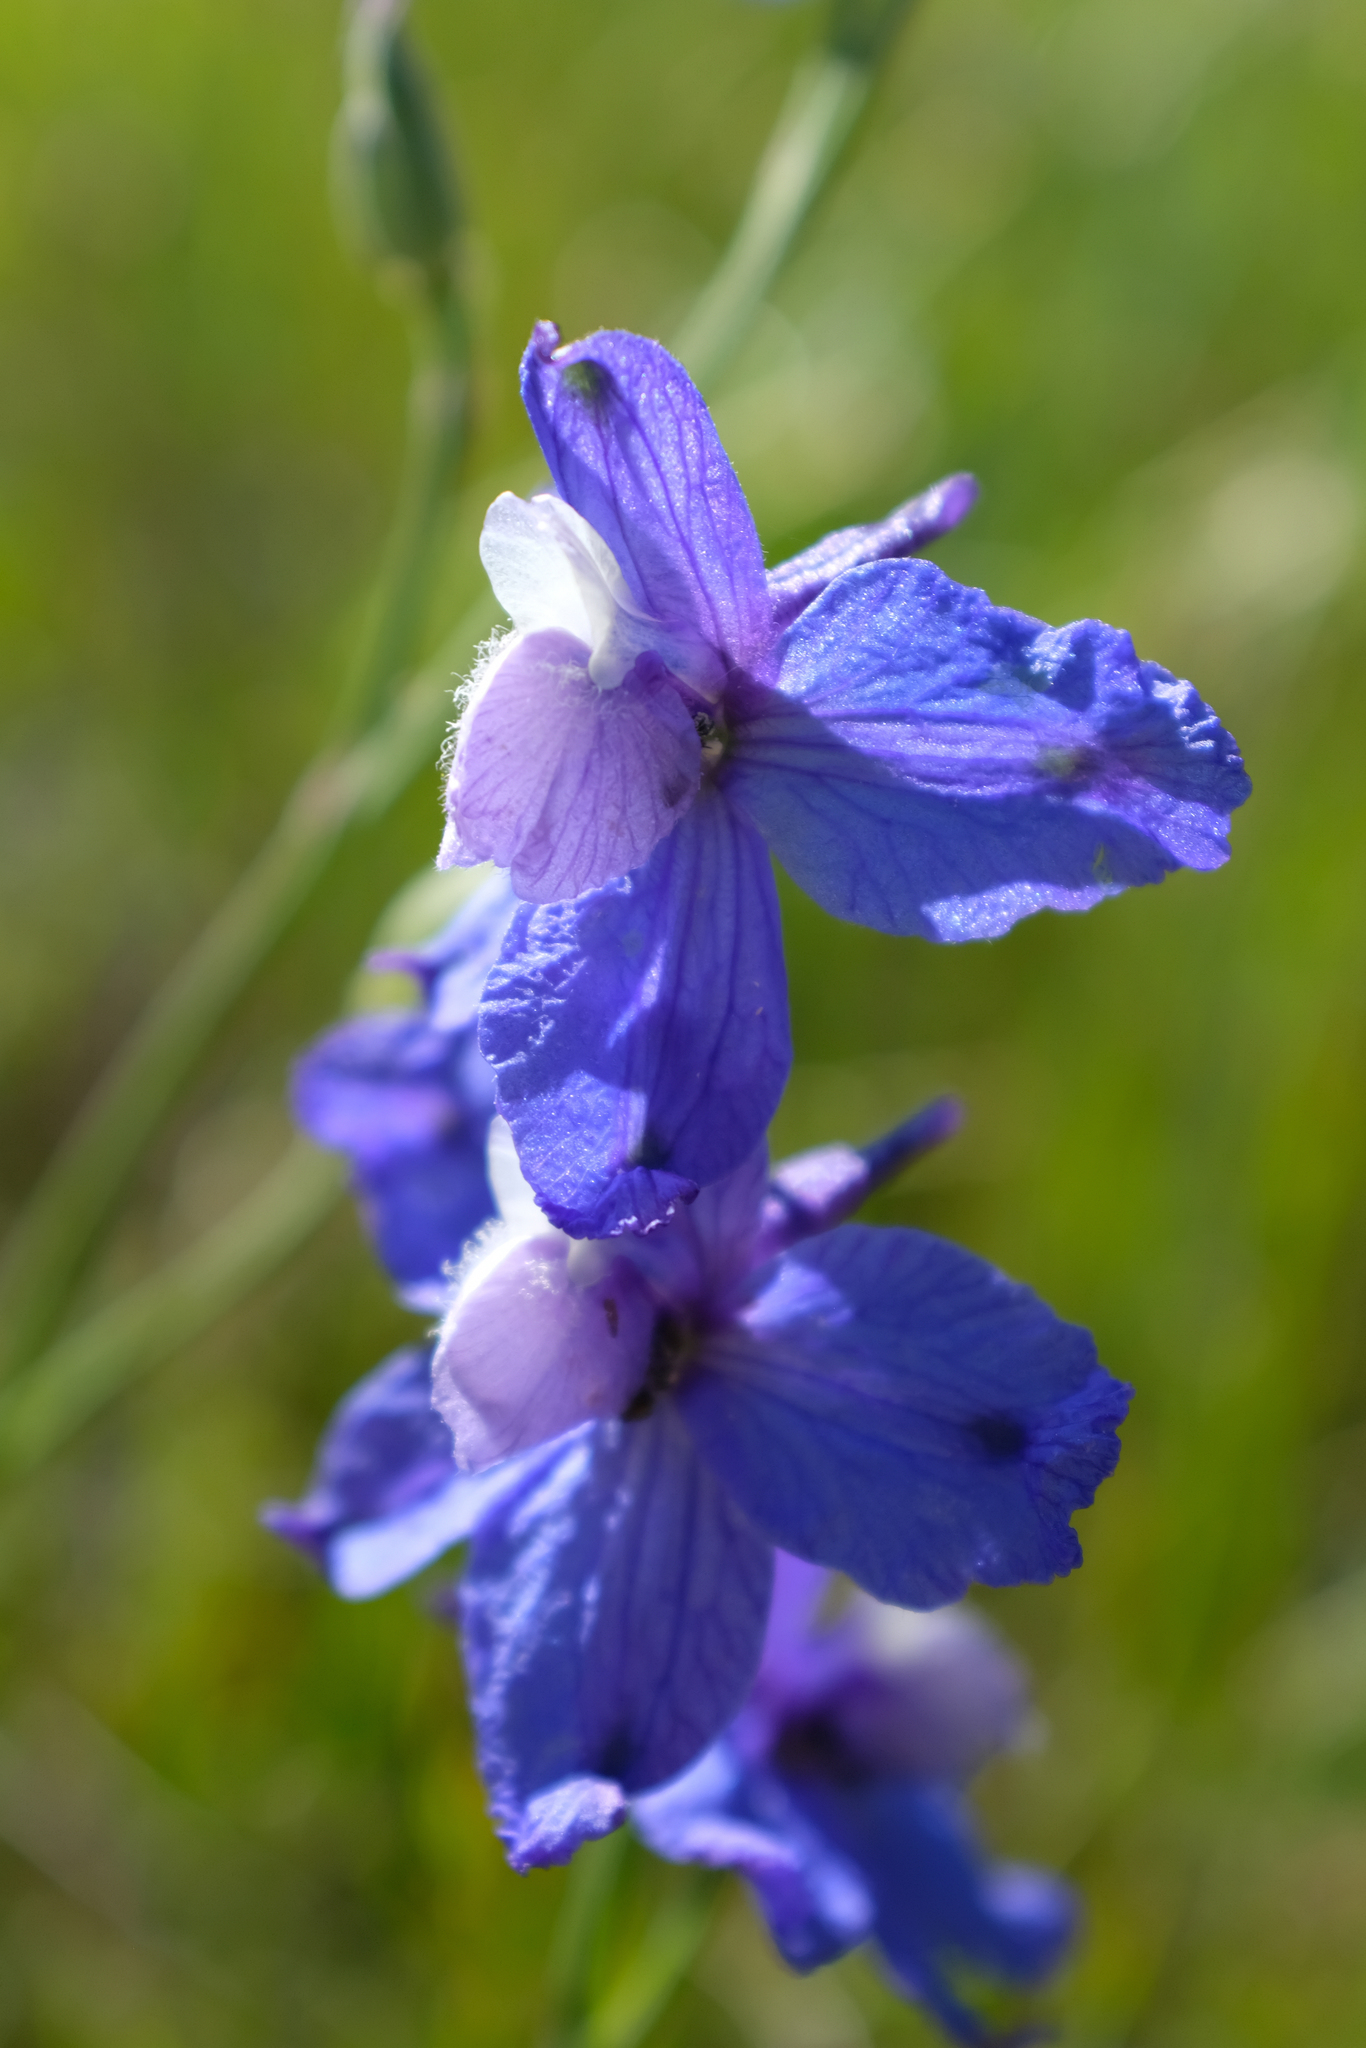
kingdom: Plantae
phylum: Tracheophyta
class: Magnoliopsida
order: Ranunculales
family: Ranunculaceae
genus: Delphinium
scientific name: Delphinium parryi
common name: Parry's larkspur
